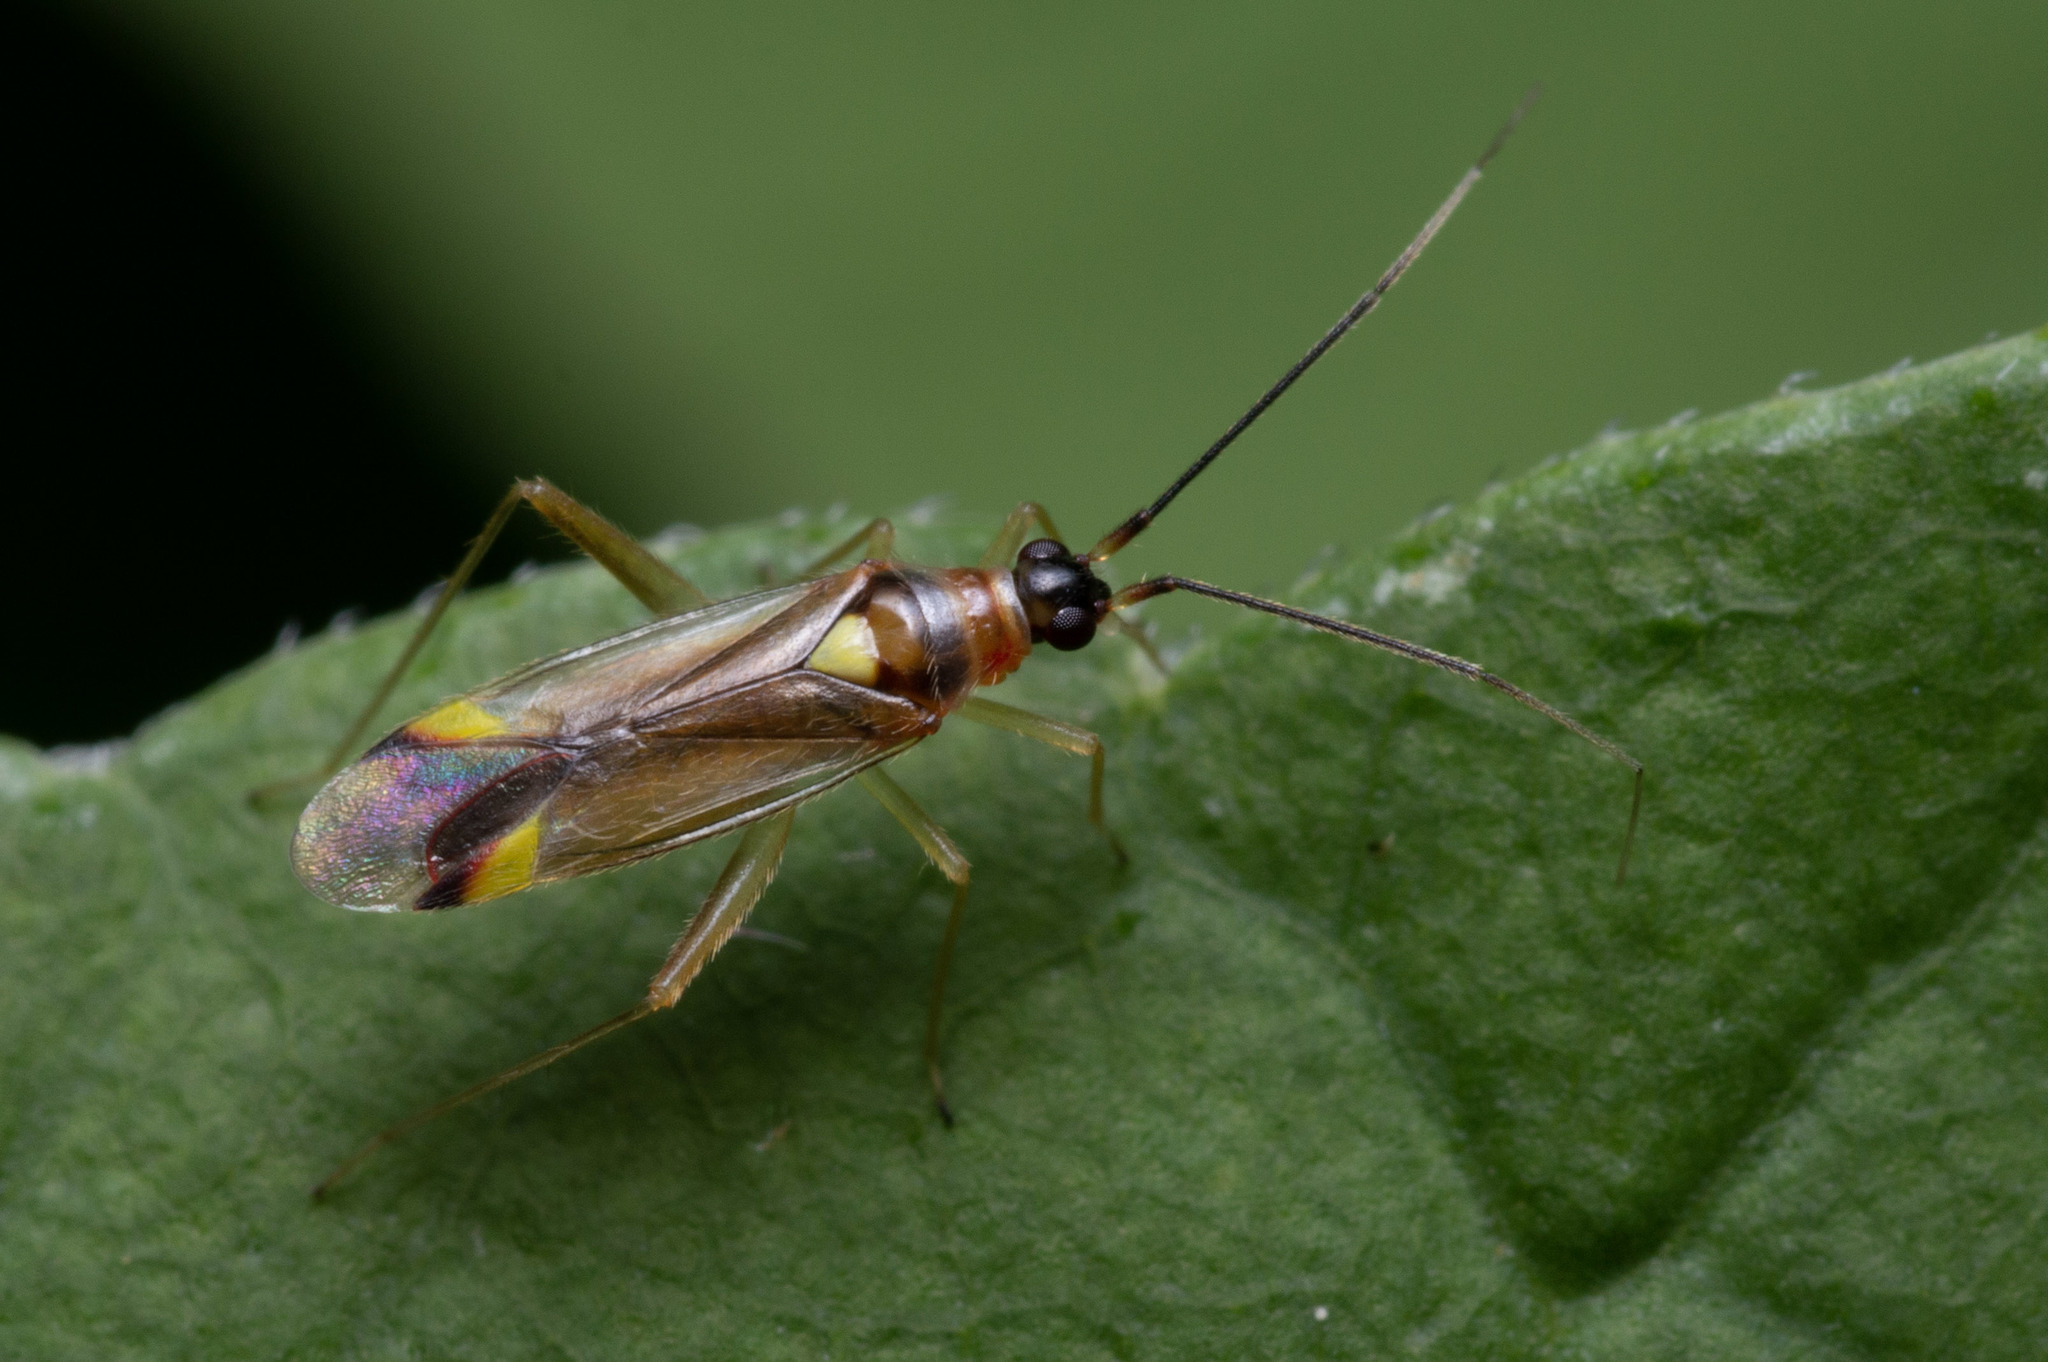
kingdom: Animalia
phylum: Arthropoda
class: Insecta
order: Hemiptera
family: Miridae
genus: Campyloneura
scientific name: Campyloneura virgula
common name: Predatory bug
